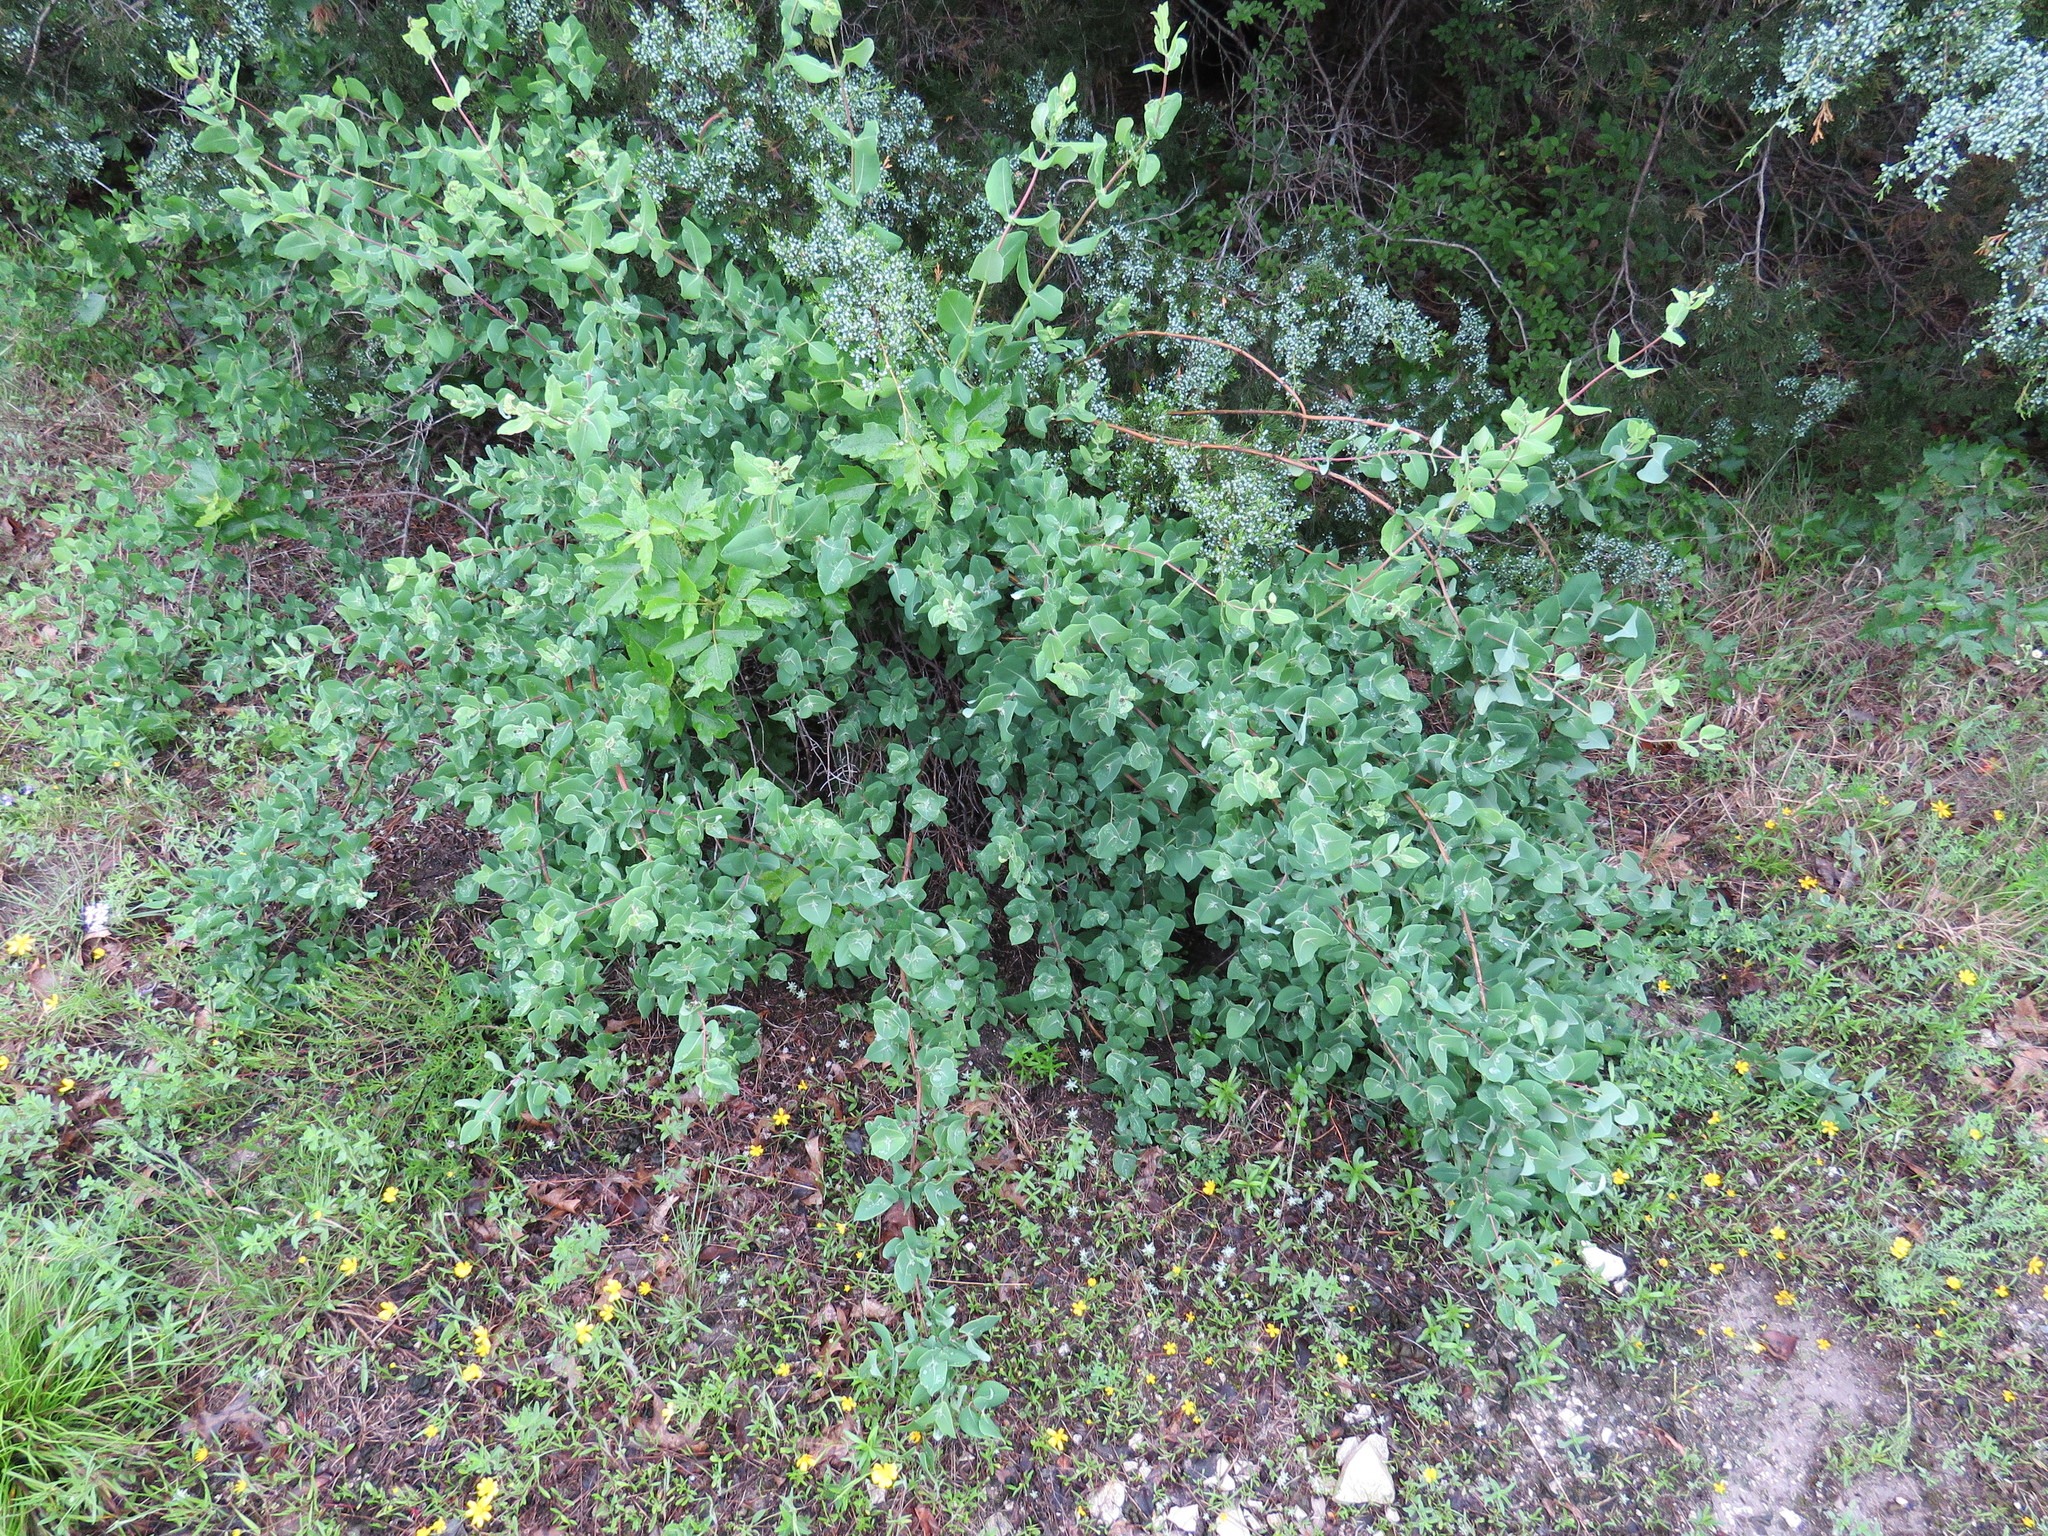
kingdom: Plantae
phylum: Tracheophyta
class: Magnoliopsida
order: Dipsacales
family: Caprifoliaceae
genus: Lonicera
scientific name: Lonicera albiflora
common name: White honeysuckle
